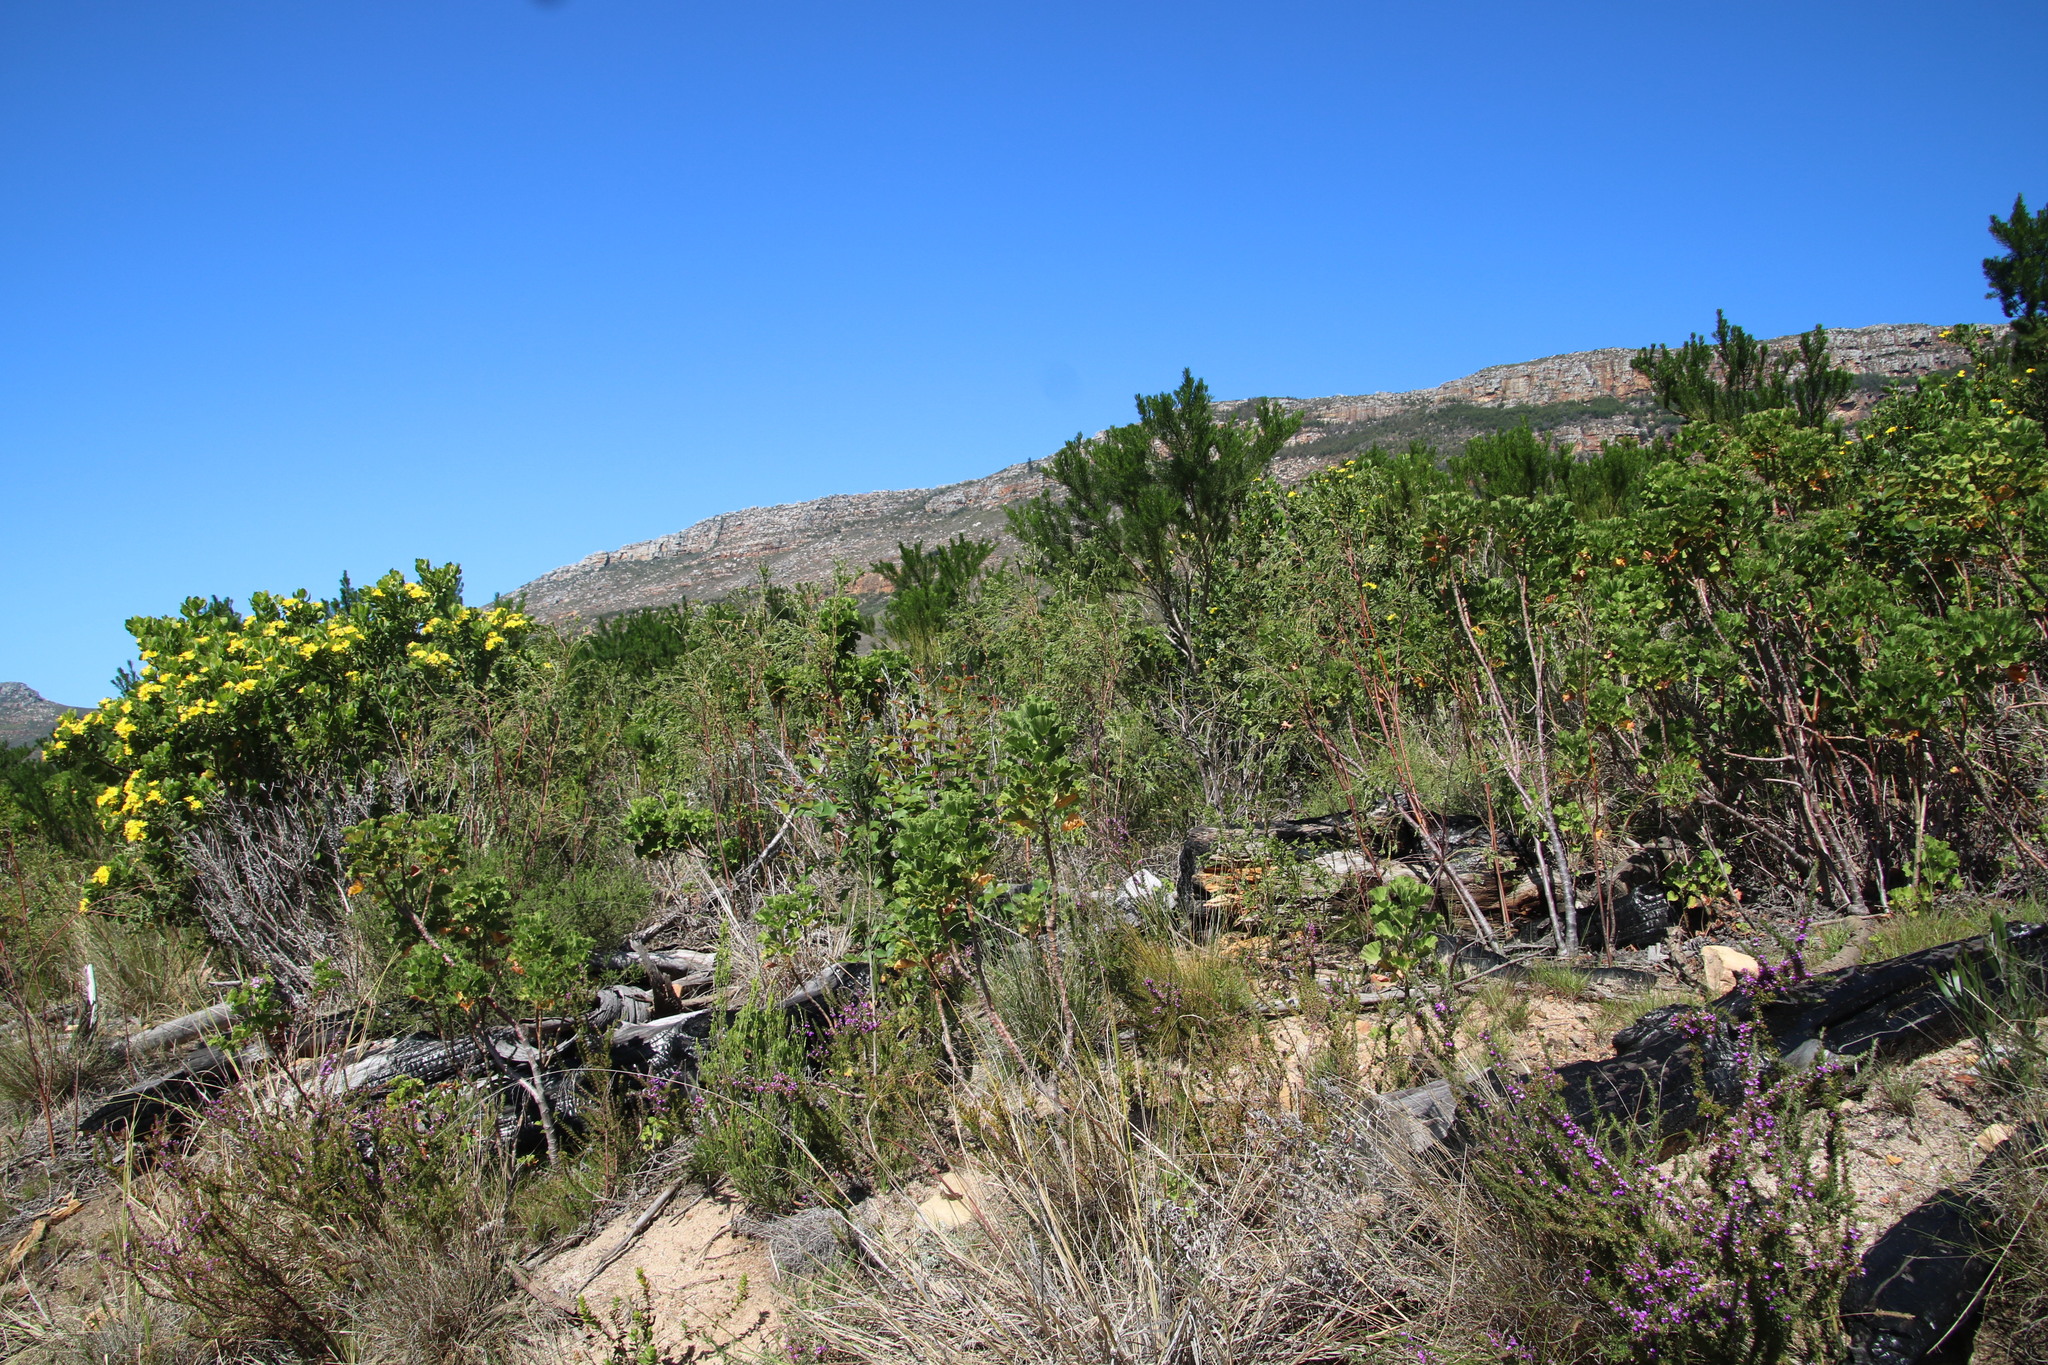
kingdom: Plantae
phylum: Tracheophyta
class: Magnoliopsida
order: Malvales
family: Thymelaeaceae
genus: Gnidia
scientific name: Gnidia sericea
